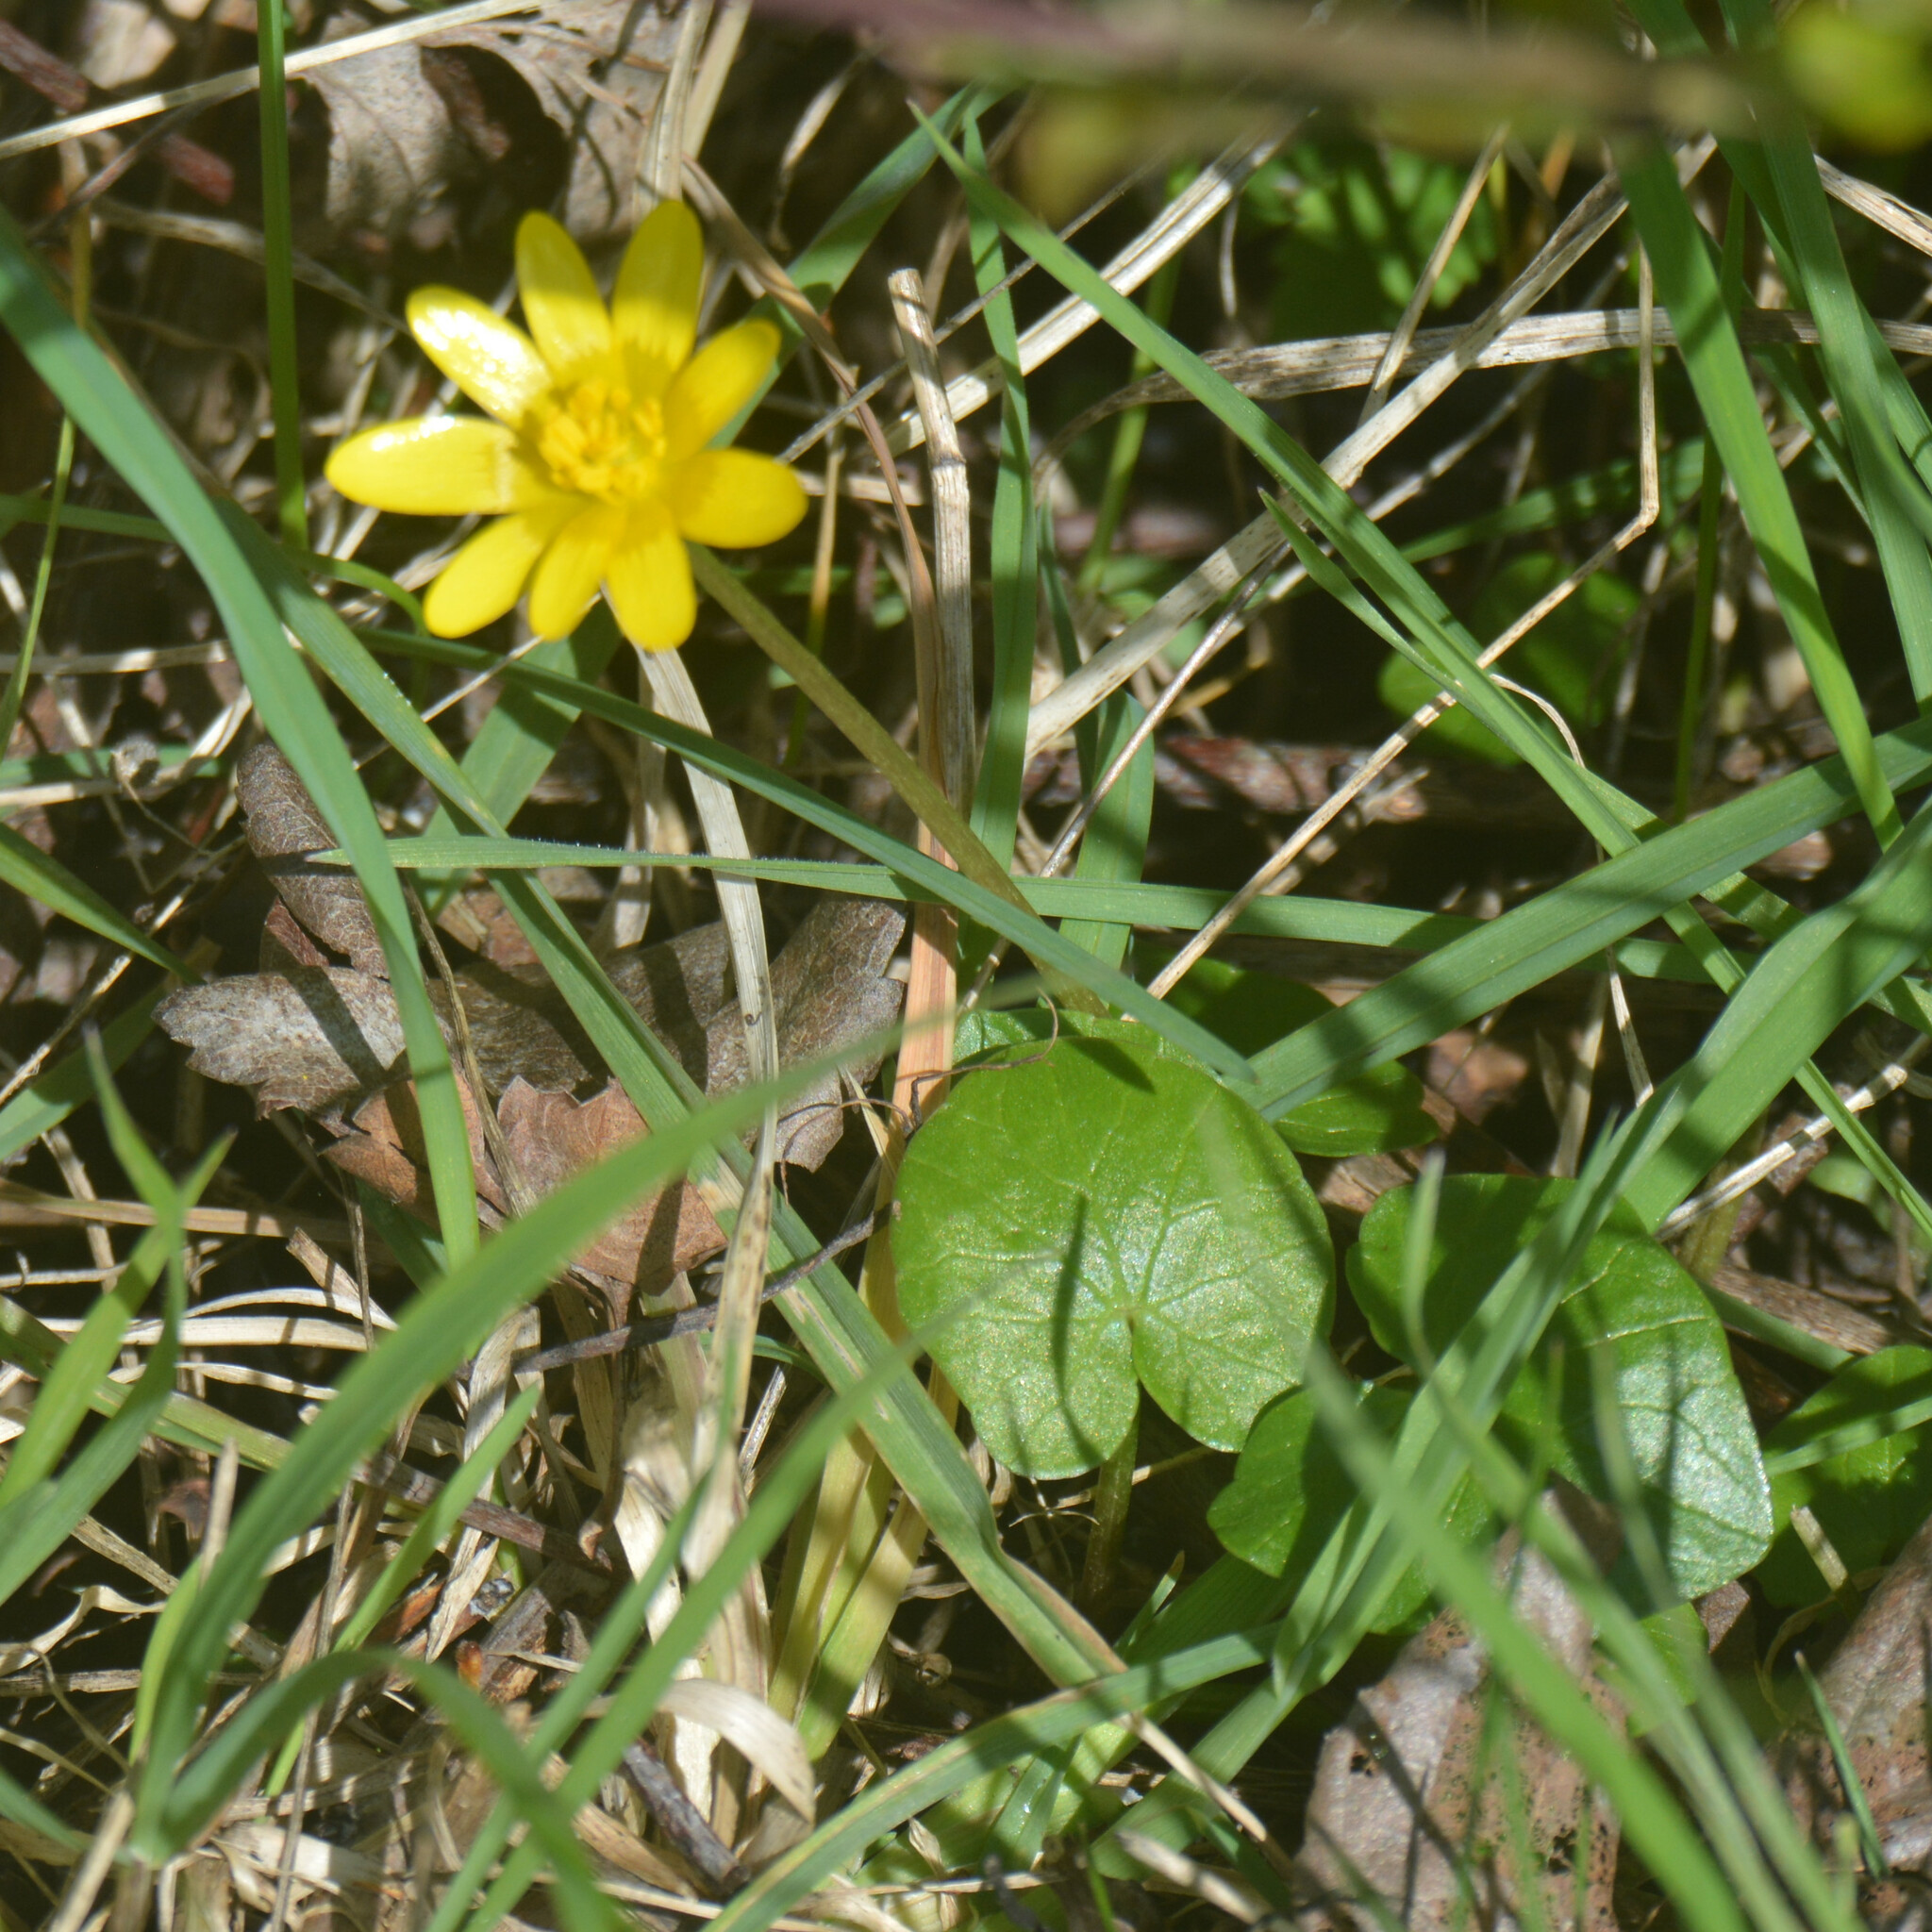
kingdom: Plantae
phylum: Tracheophyta
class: Magnoliopsida
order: Ranunculales
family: Ranunculaceae
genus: Ficaria
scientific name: Ficaria verna
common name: Lesser celandine
